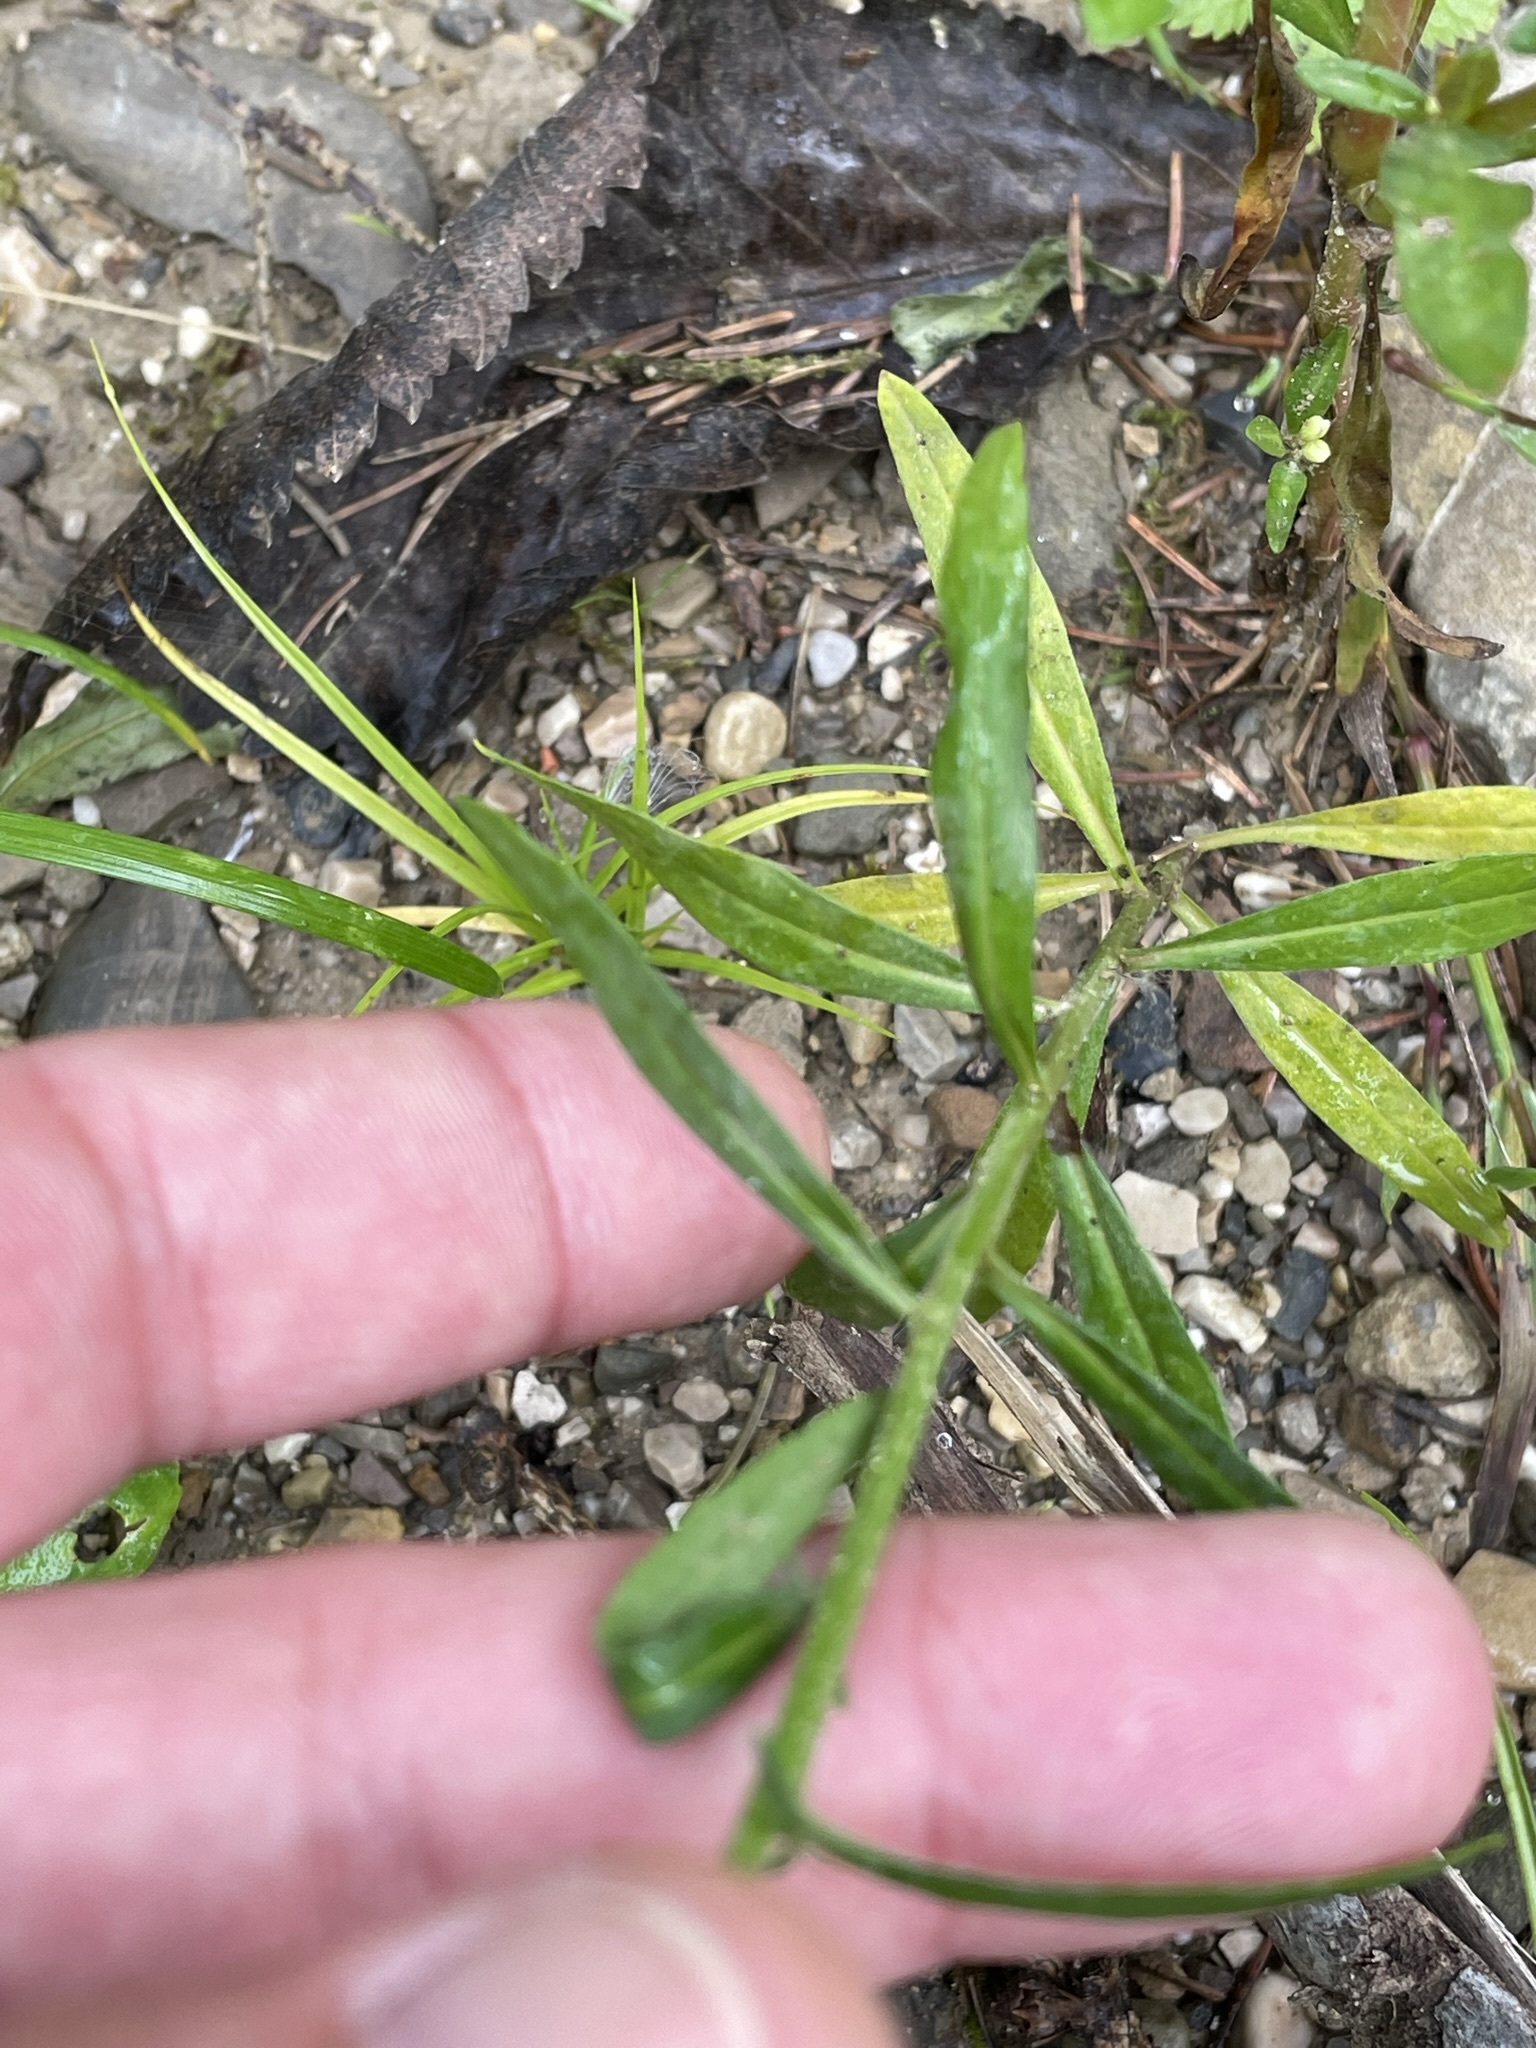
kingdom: Plantae
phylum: Tracheophyta
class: Magnoliopsida
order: Brassicales
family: Brassicaceae
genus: Erysimum
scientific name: Erysimum cheiranthoides
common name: Treacle mustard
